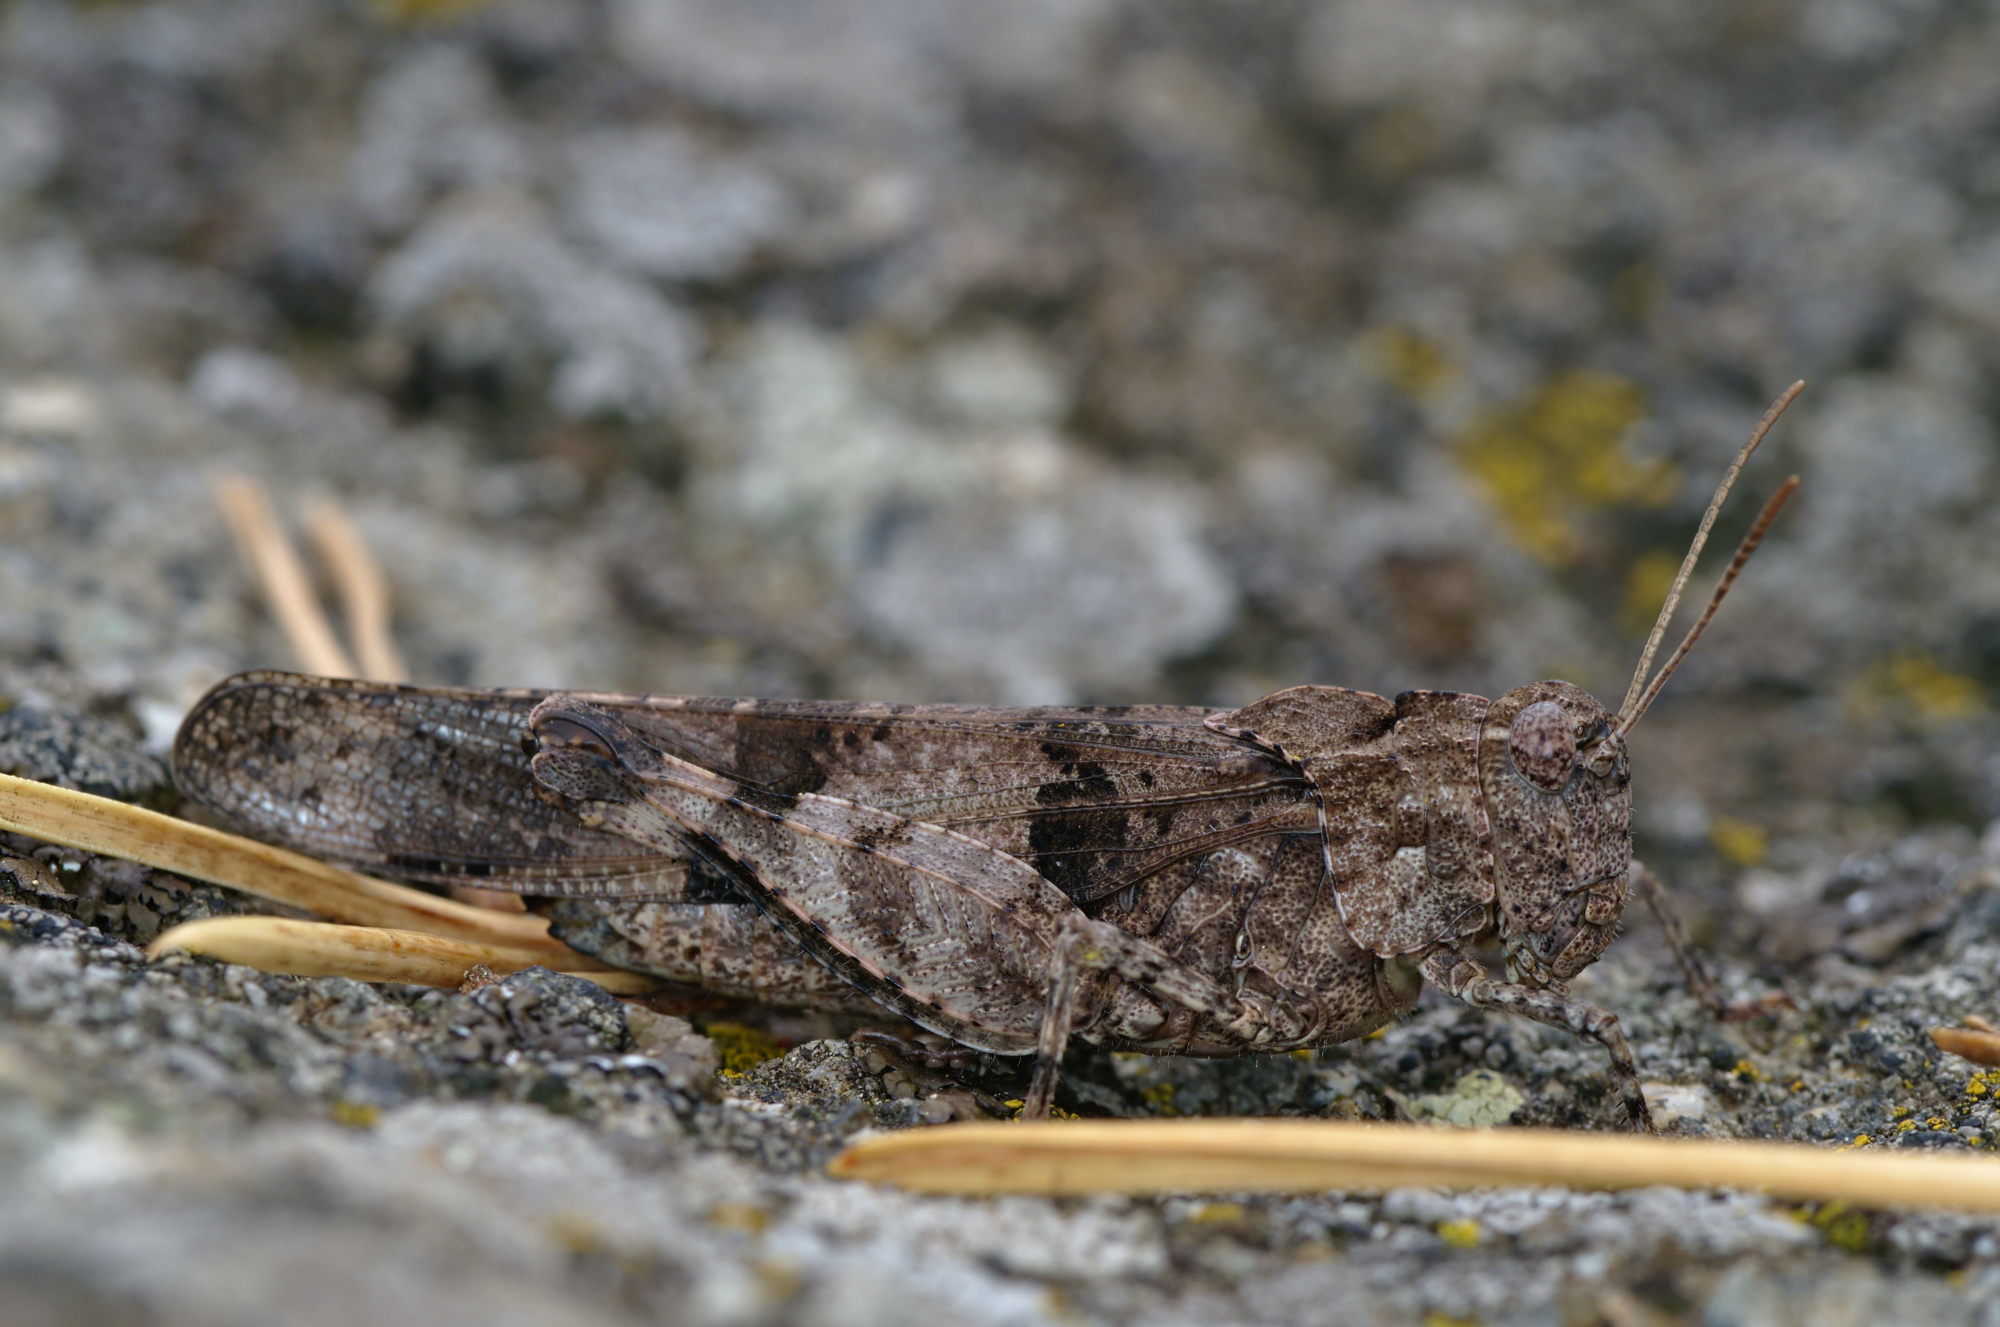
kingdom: Animalia
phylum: Arthropoda
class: Insecta
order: Orthoptera
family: Acrididae
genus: Oedipoda
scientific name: Oedipoda caerulescens
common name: Blue-winged grasshopper
